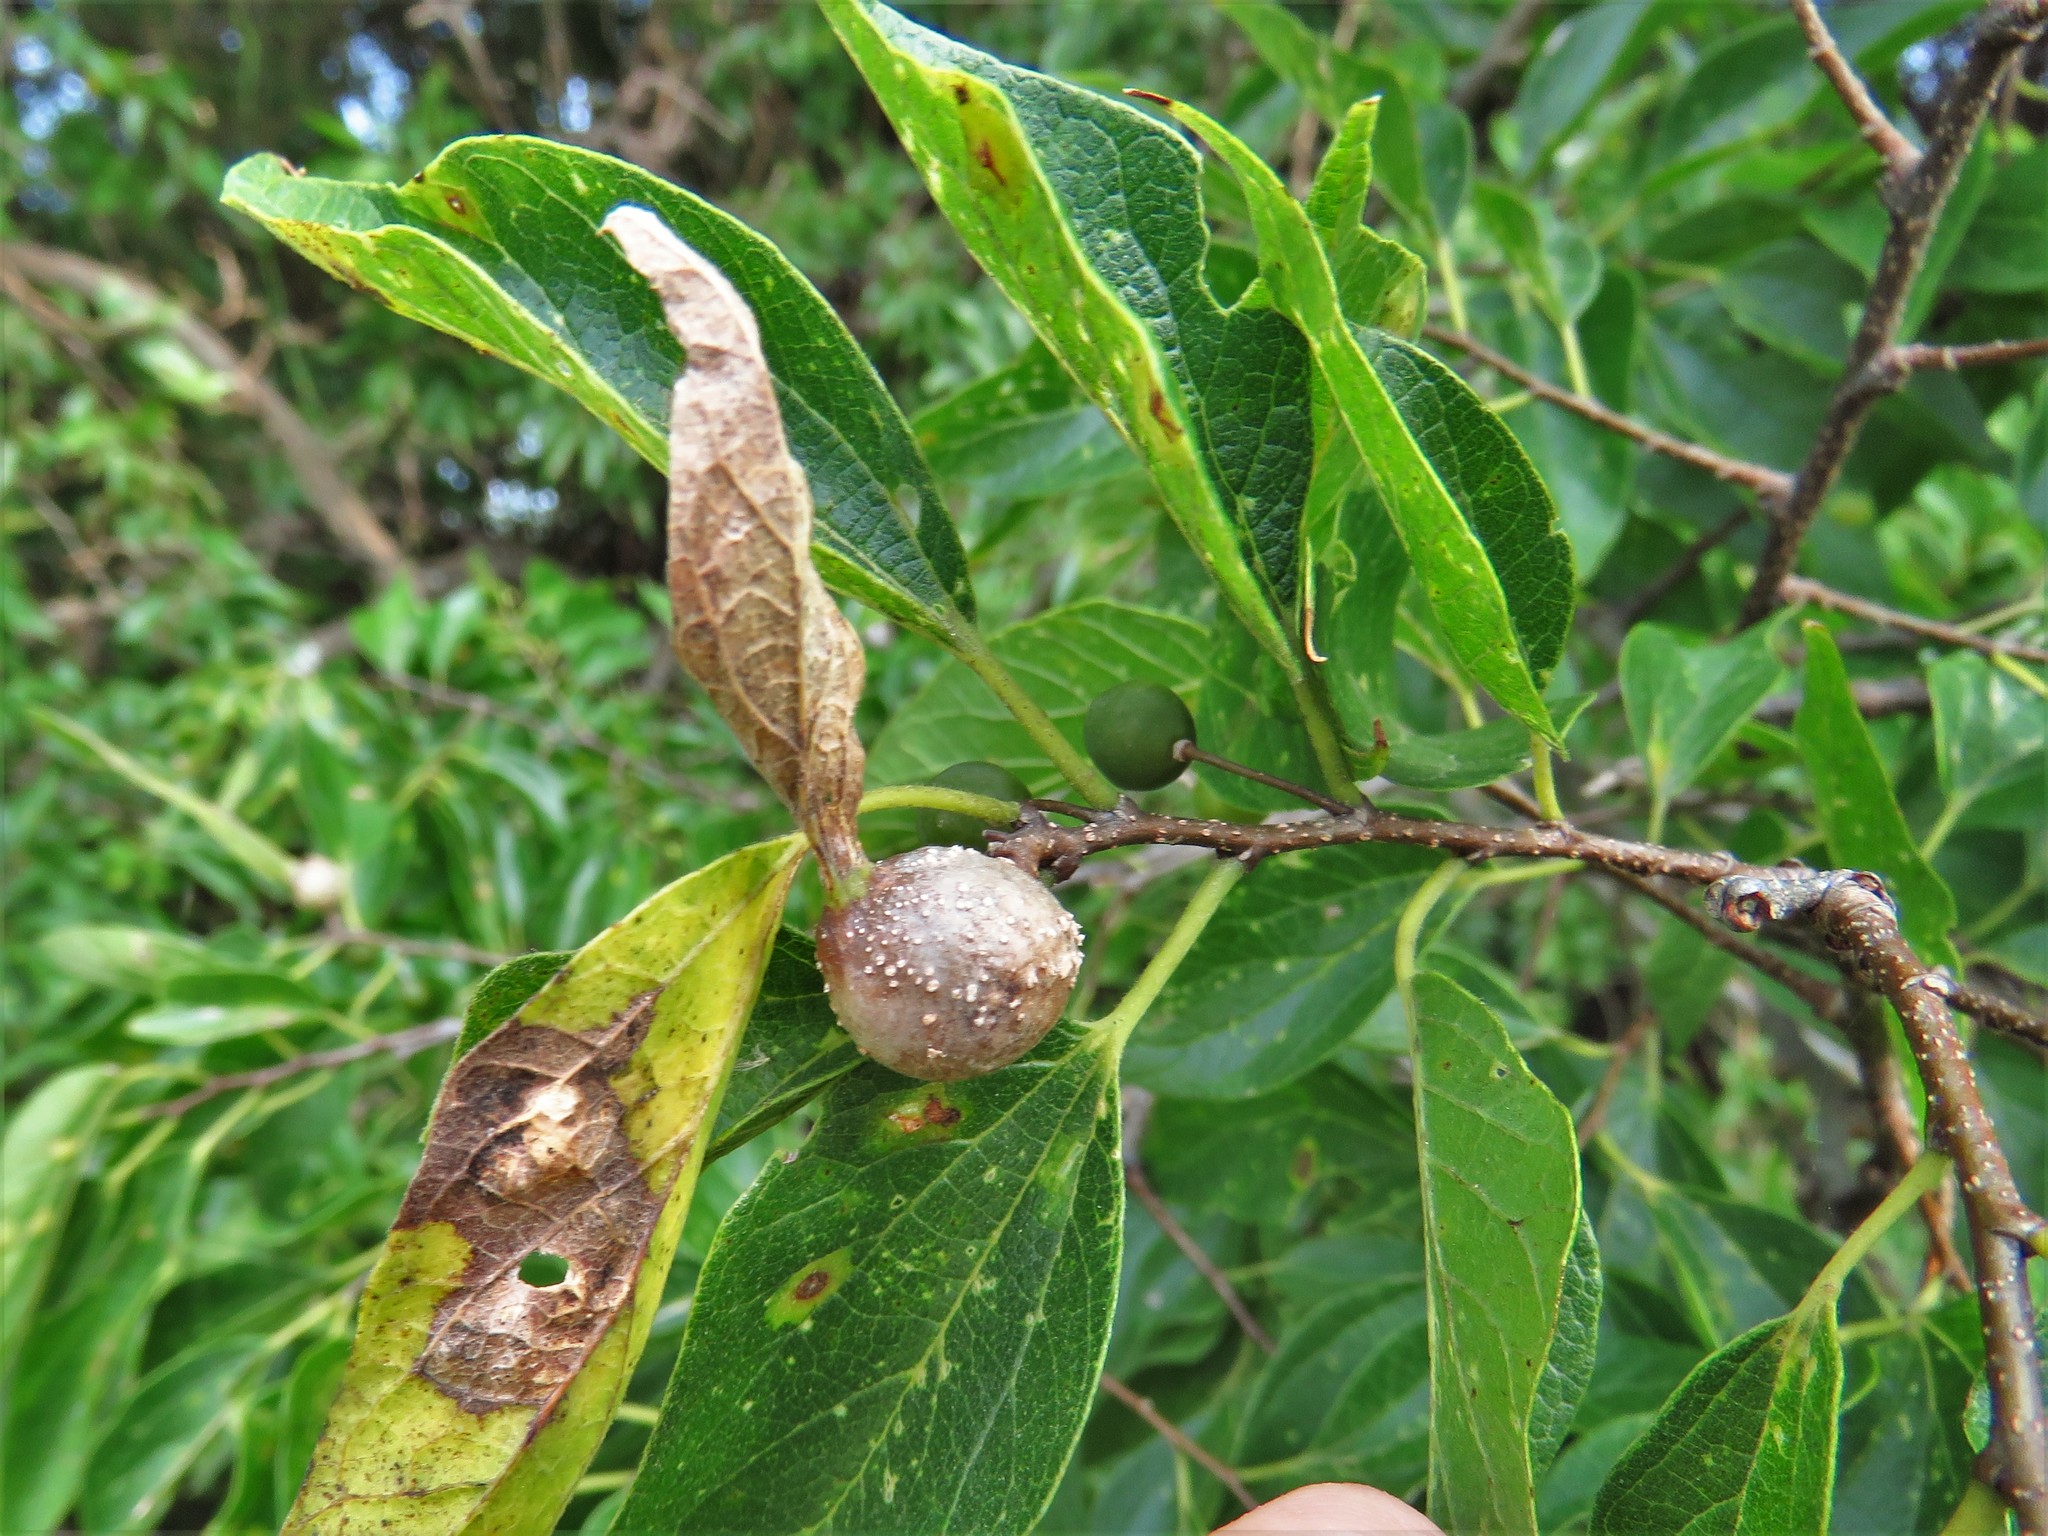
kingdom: Animalia
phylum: Arthropoda
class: Insecta
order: Hemiptera
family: Aphalaridae
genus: Pachypsylla
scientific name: Pachypsylla venusta
